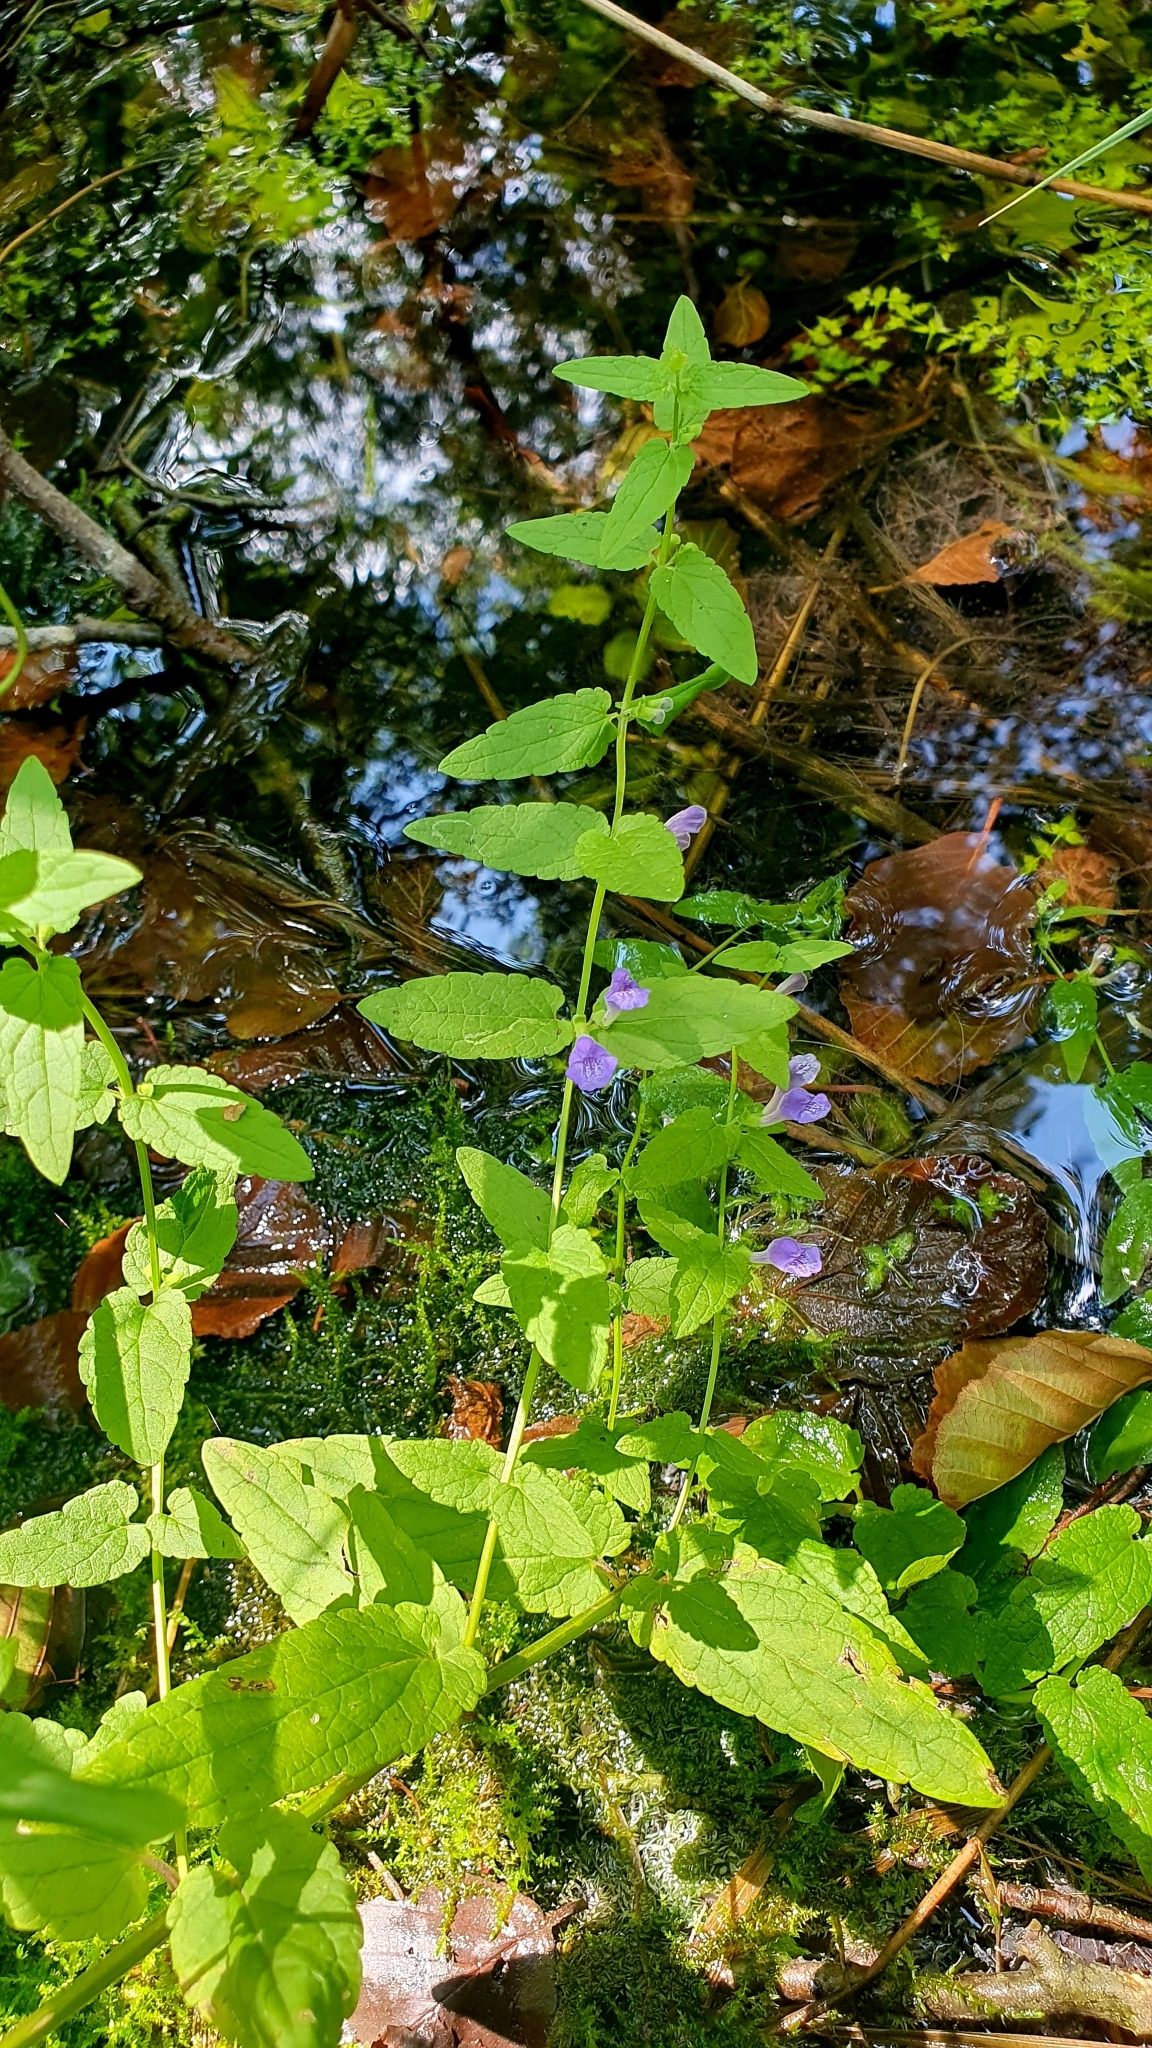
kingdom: Plantae
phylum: Tracheophyta
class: Magnoliopsida
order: Lamiales
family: Lamiaceae
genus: Scutellaria
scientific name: Scutellaria galericulata
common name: Skullcap
